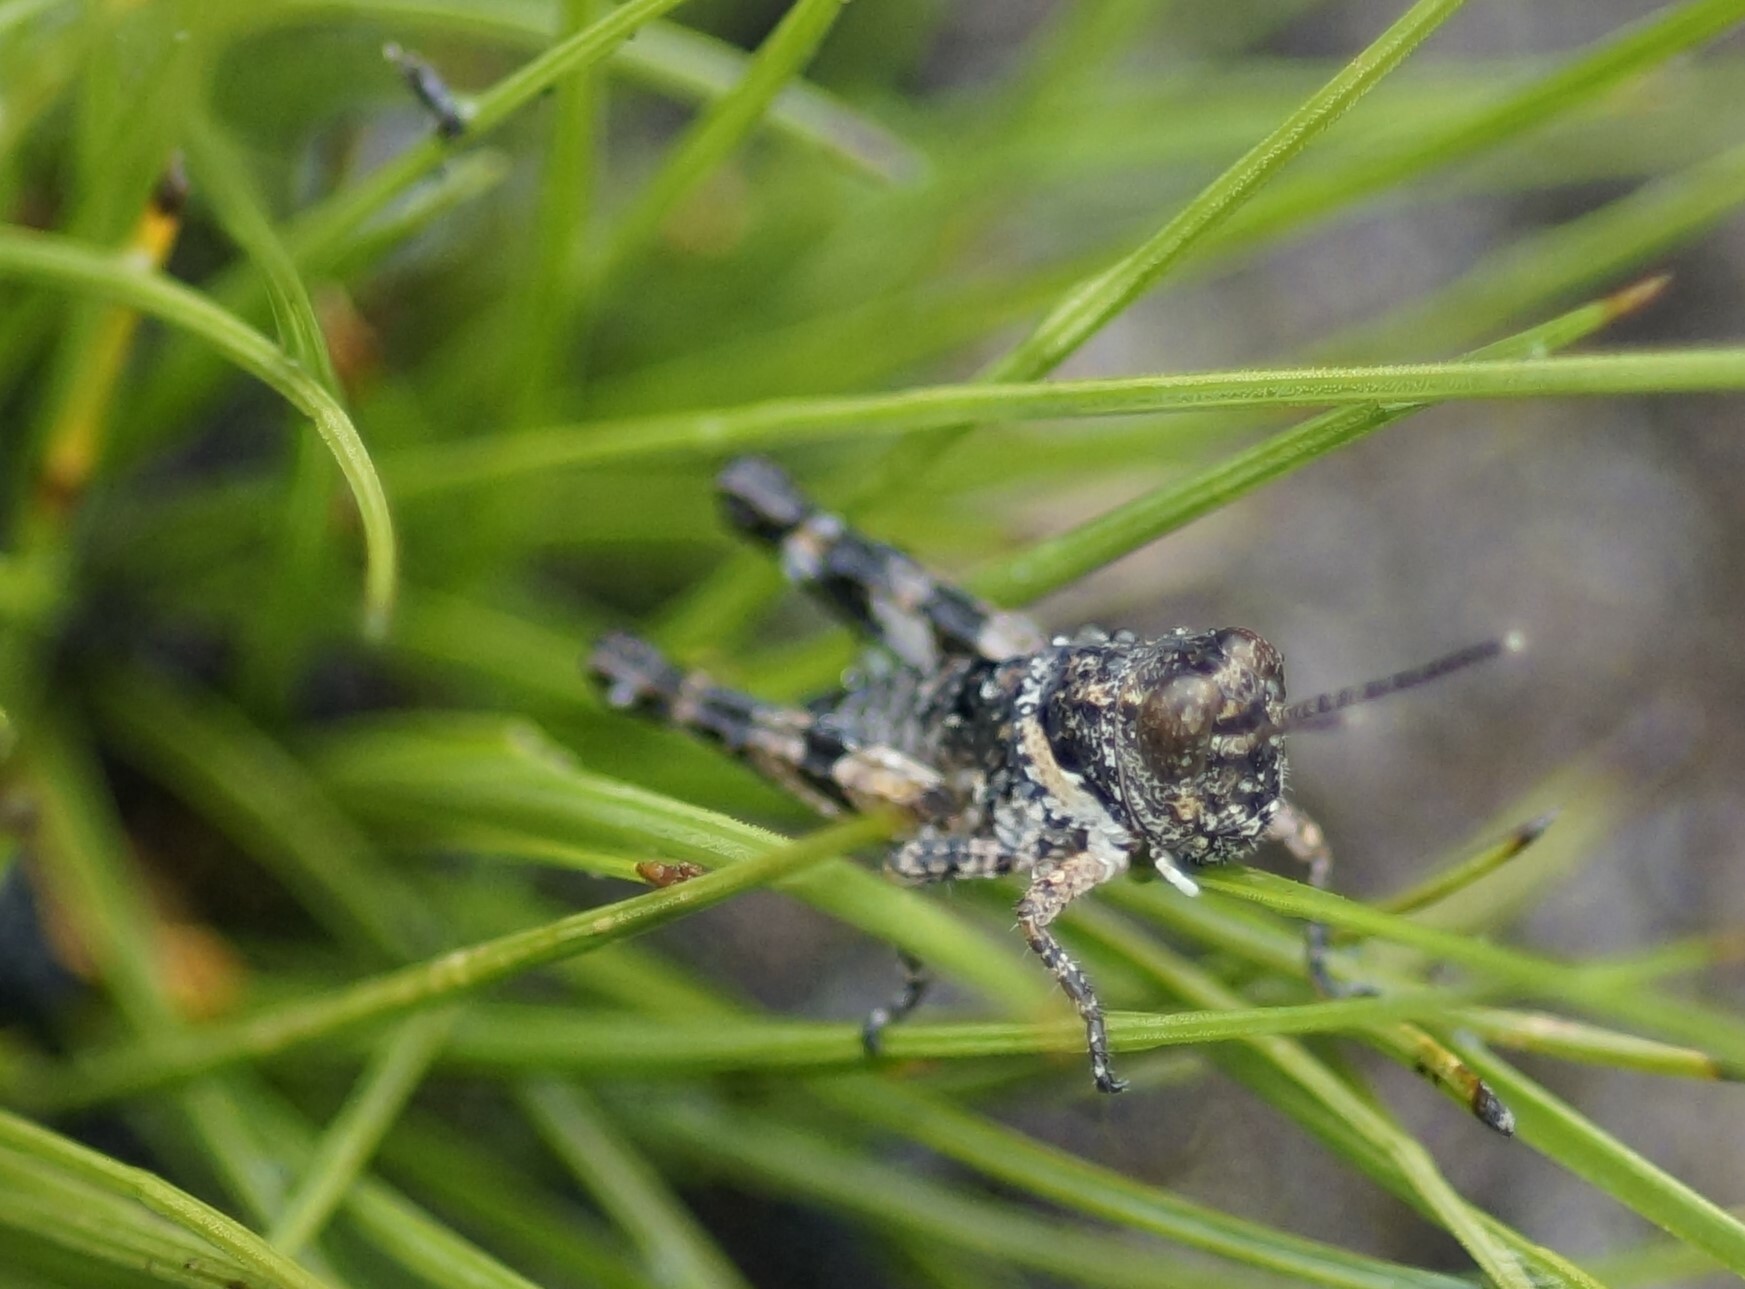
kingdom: Animalia
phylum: Arthropoda
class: Insecta
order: Orthoptera
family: Acrididae
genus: Cirphula
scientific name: Cirphula pyrrhocnemis
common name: Variable cirphula
